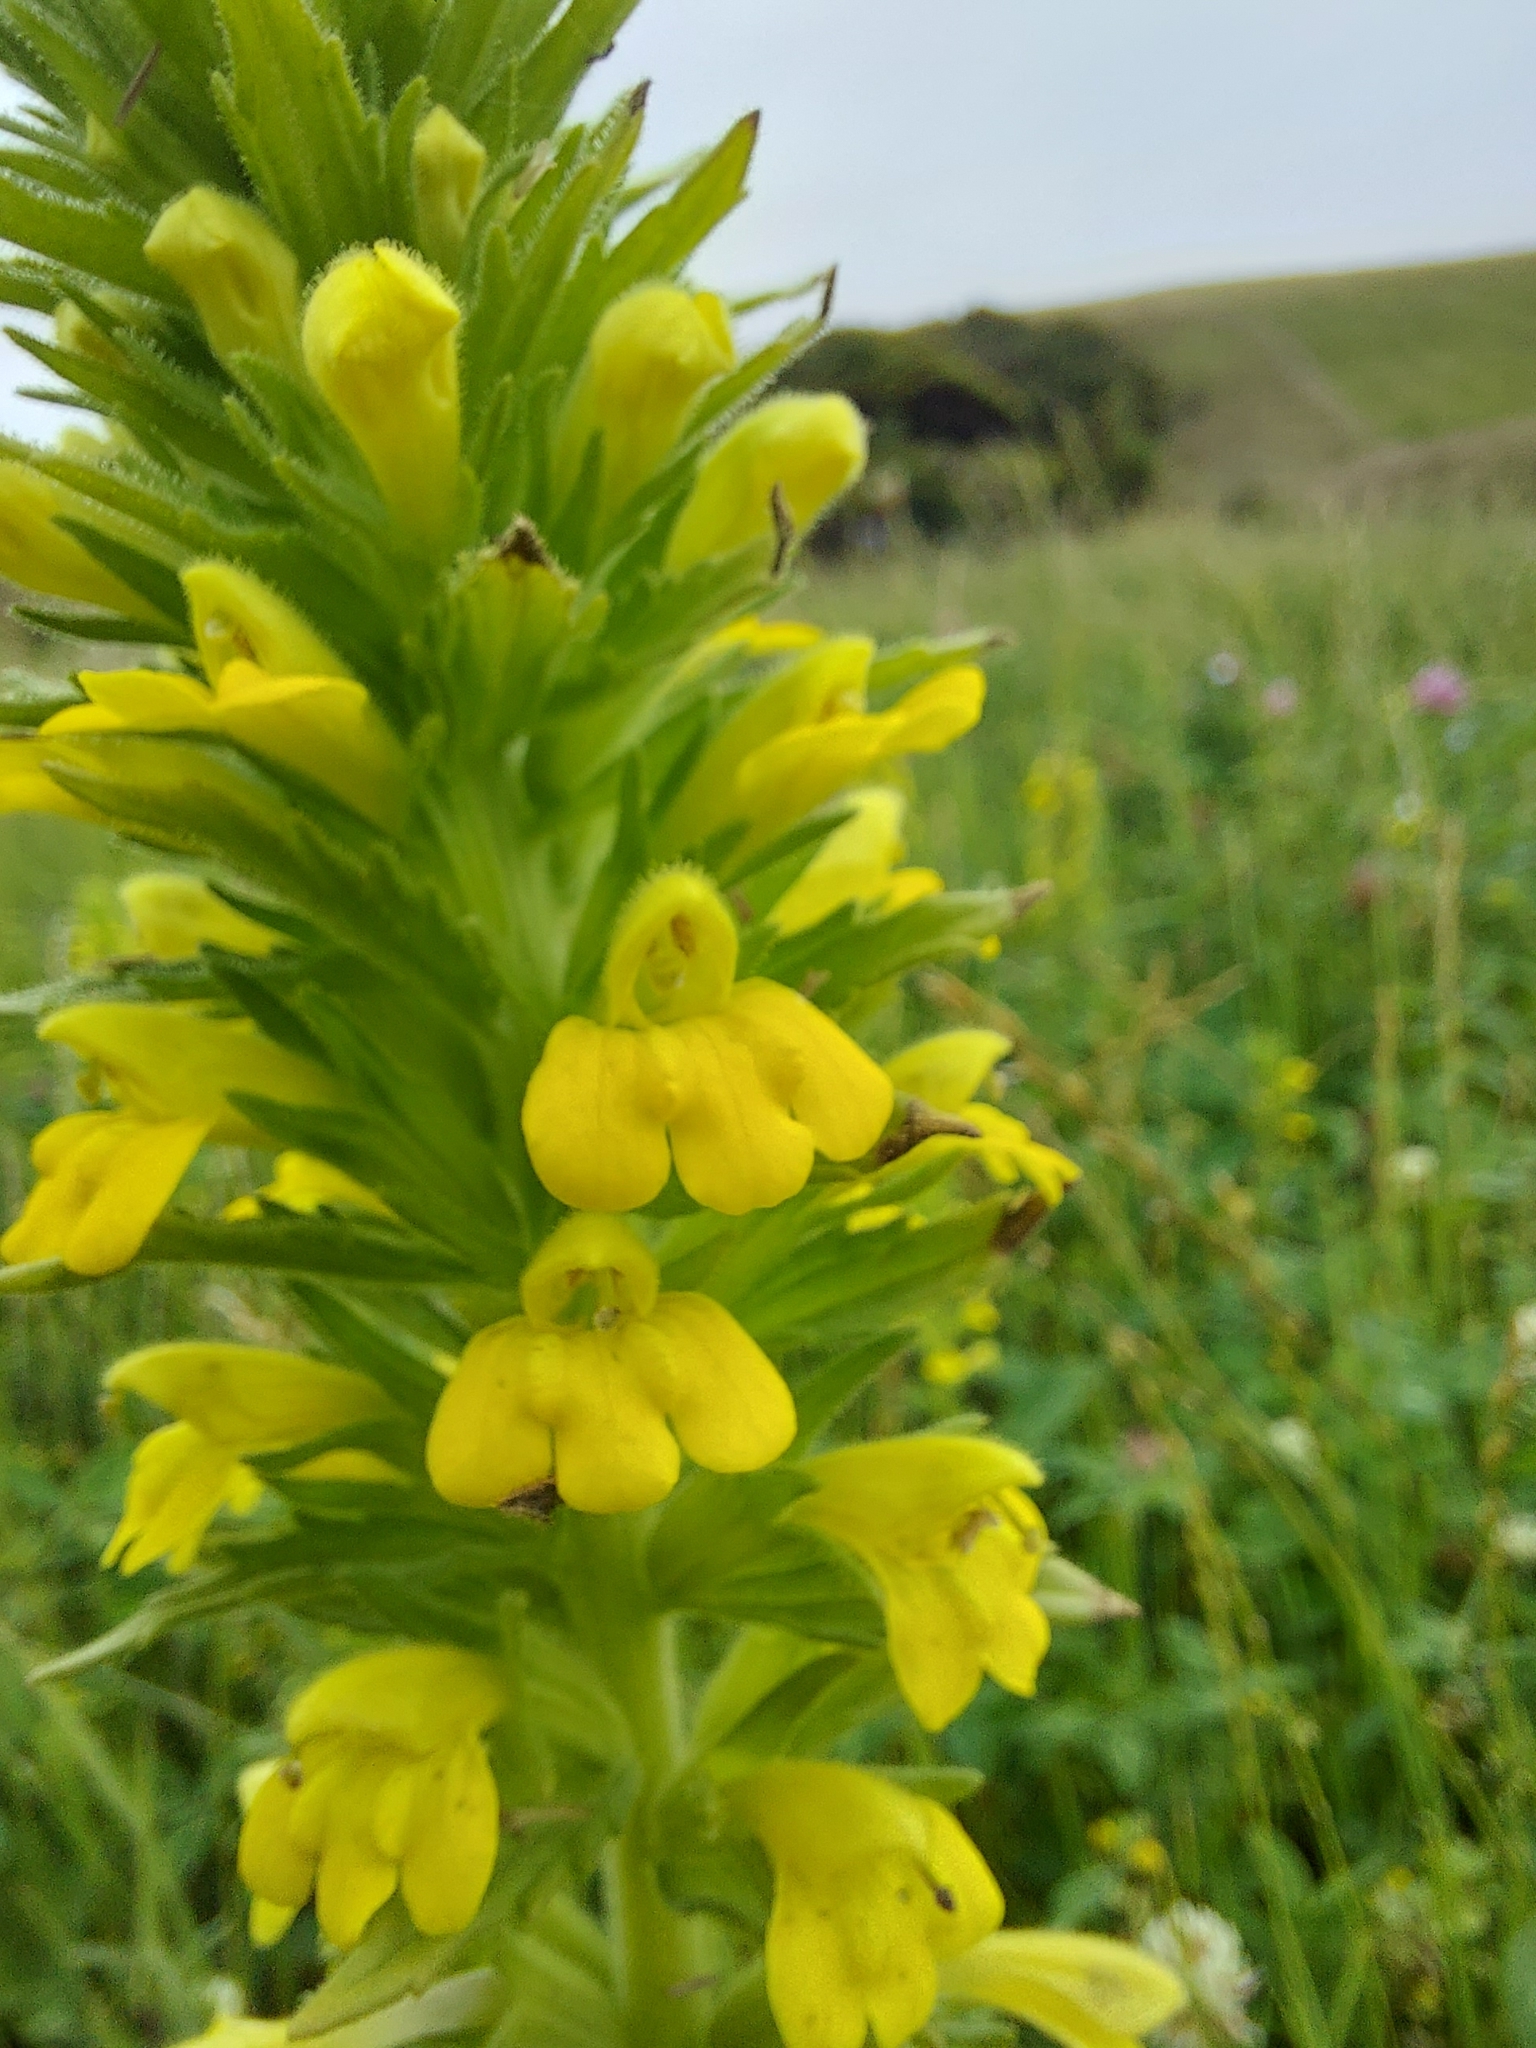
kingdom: Plantae
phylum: Tracheophyta
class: Magnoliopsida
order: Lamiales
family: Orobanchaceae
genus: Bellardia
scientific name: Bellardia viscosa
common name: Sticky parentucellia
